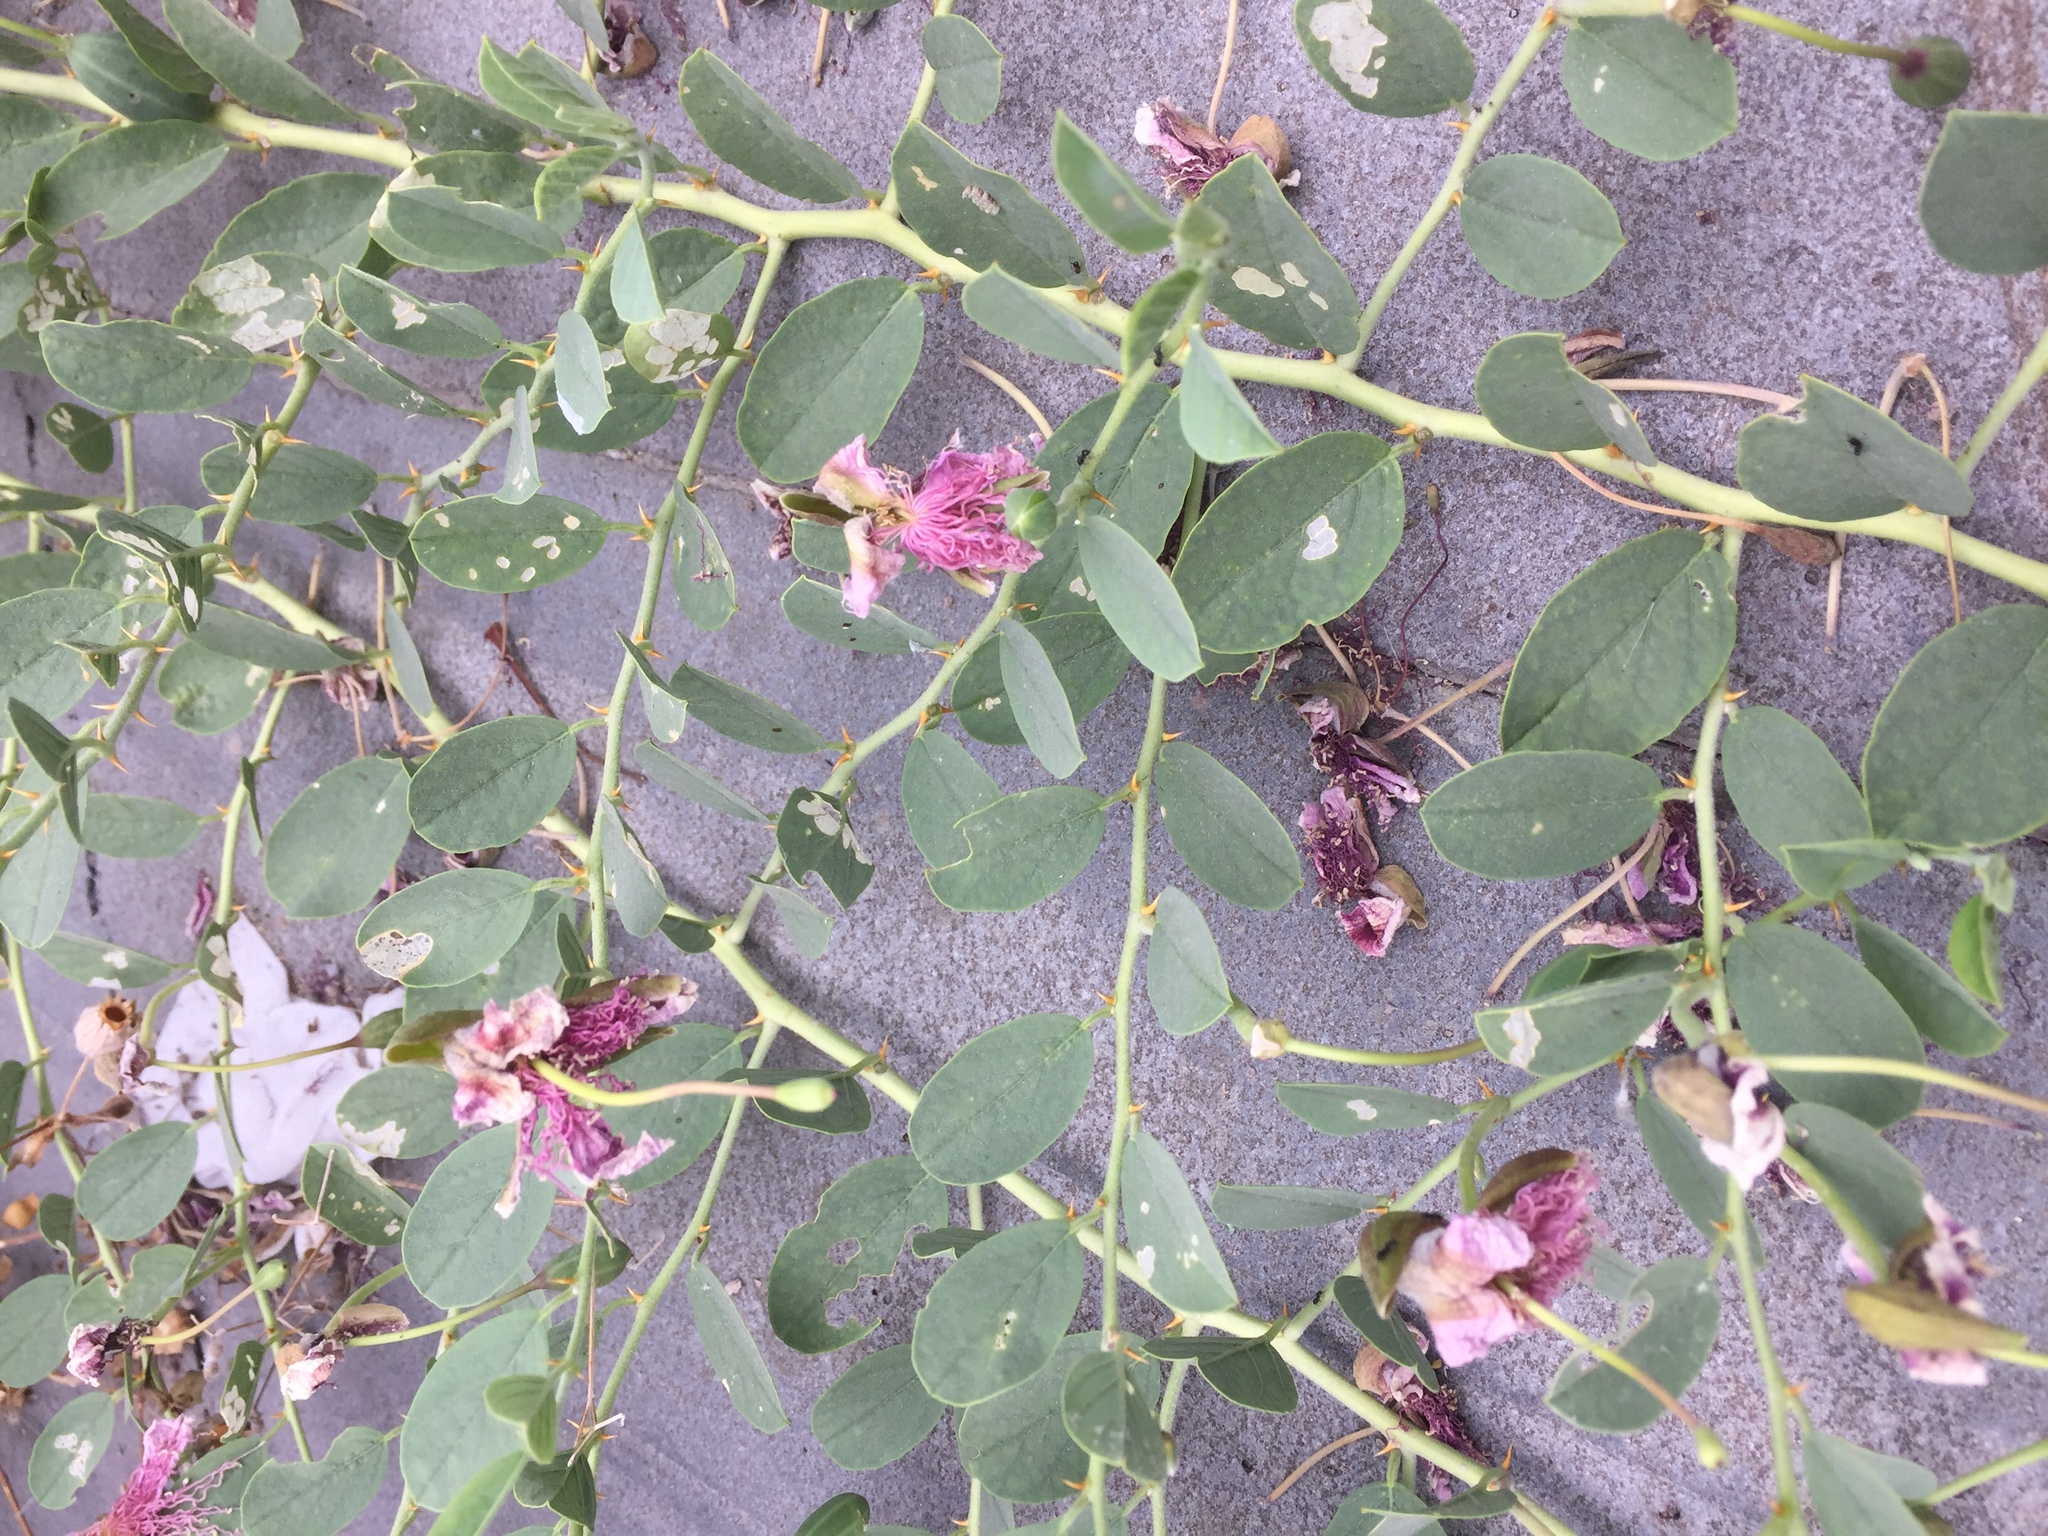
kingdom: Plantae
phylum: Tracheophyta
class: Magnoliopsida
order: Brassicales
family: Capparaceae
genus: Capparis
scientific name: Capparis spinosa
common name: Caper
